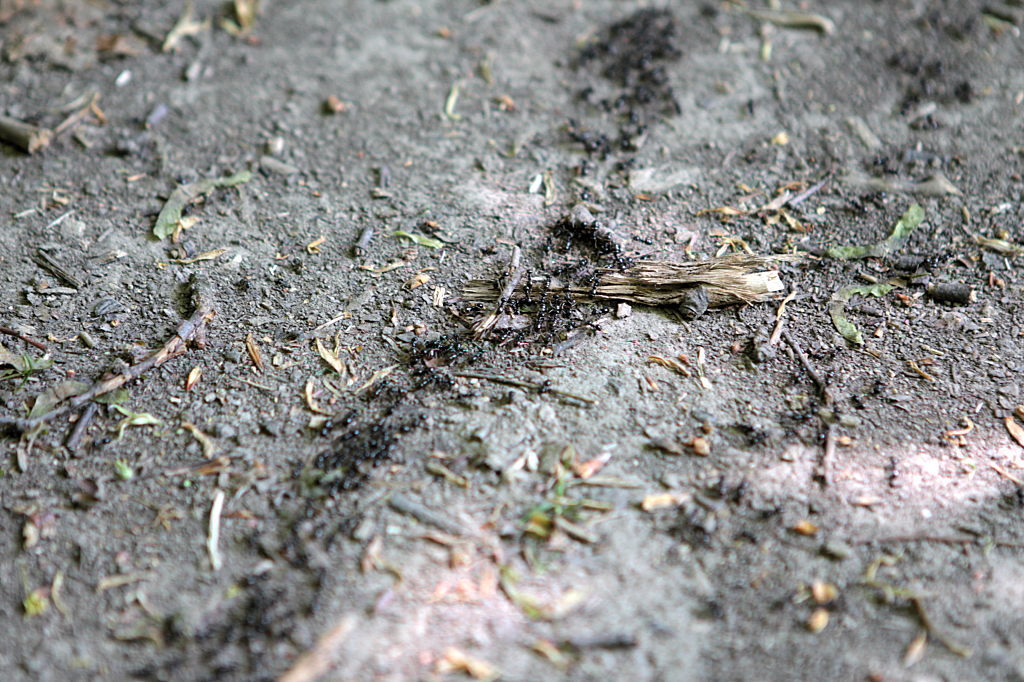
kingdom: Animalia
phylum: Arthropoda
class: Insecta
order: Hymenoptera
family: Formicidae
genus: Lasius
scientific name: Lasius fuliginosus
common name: Jet ant
